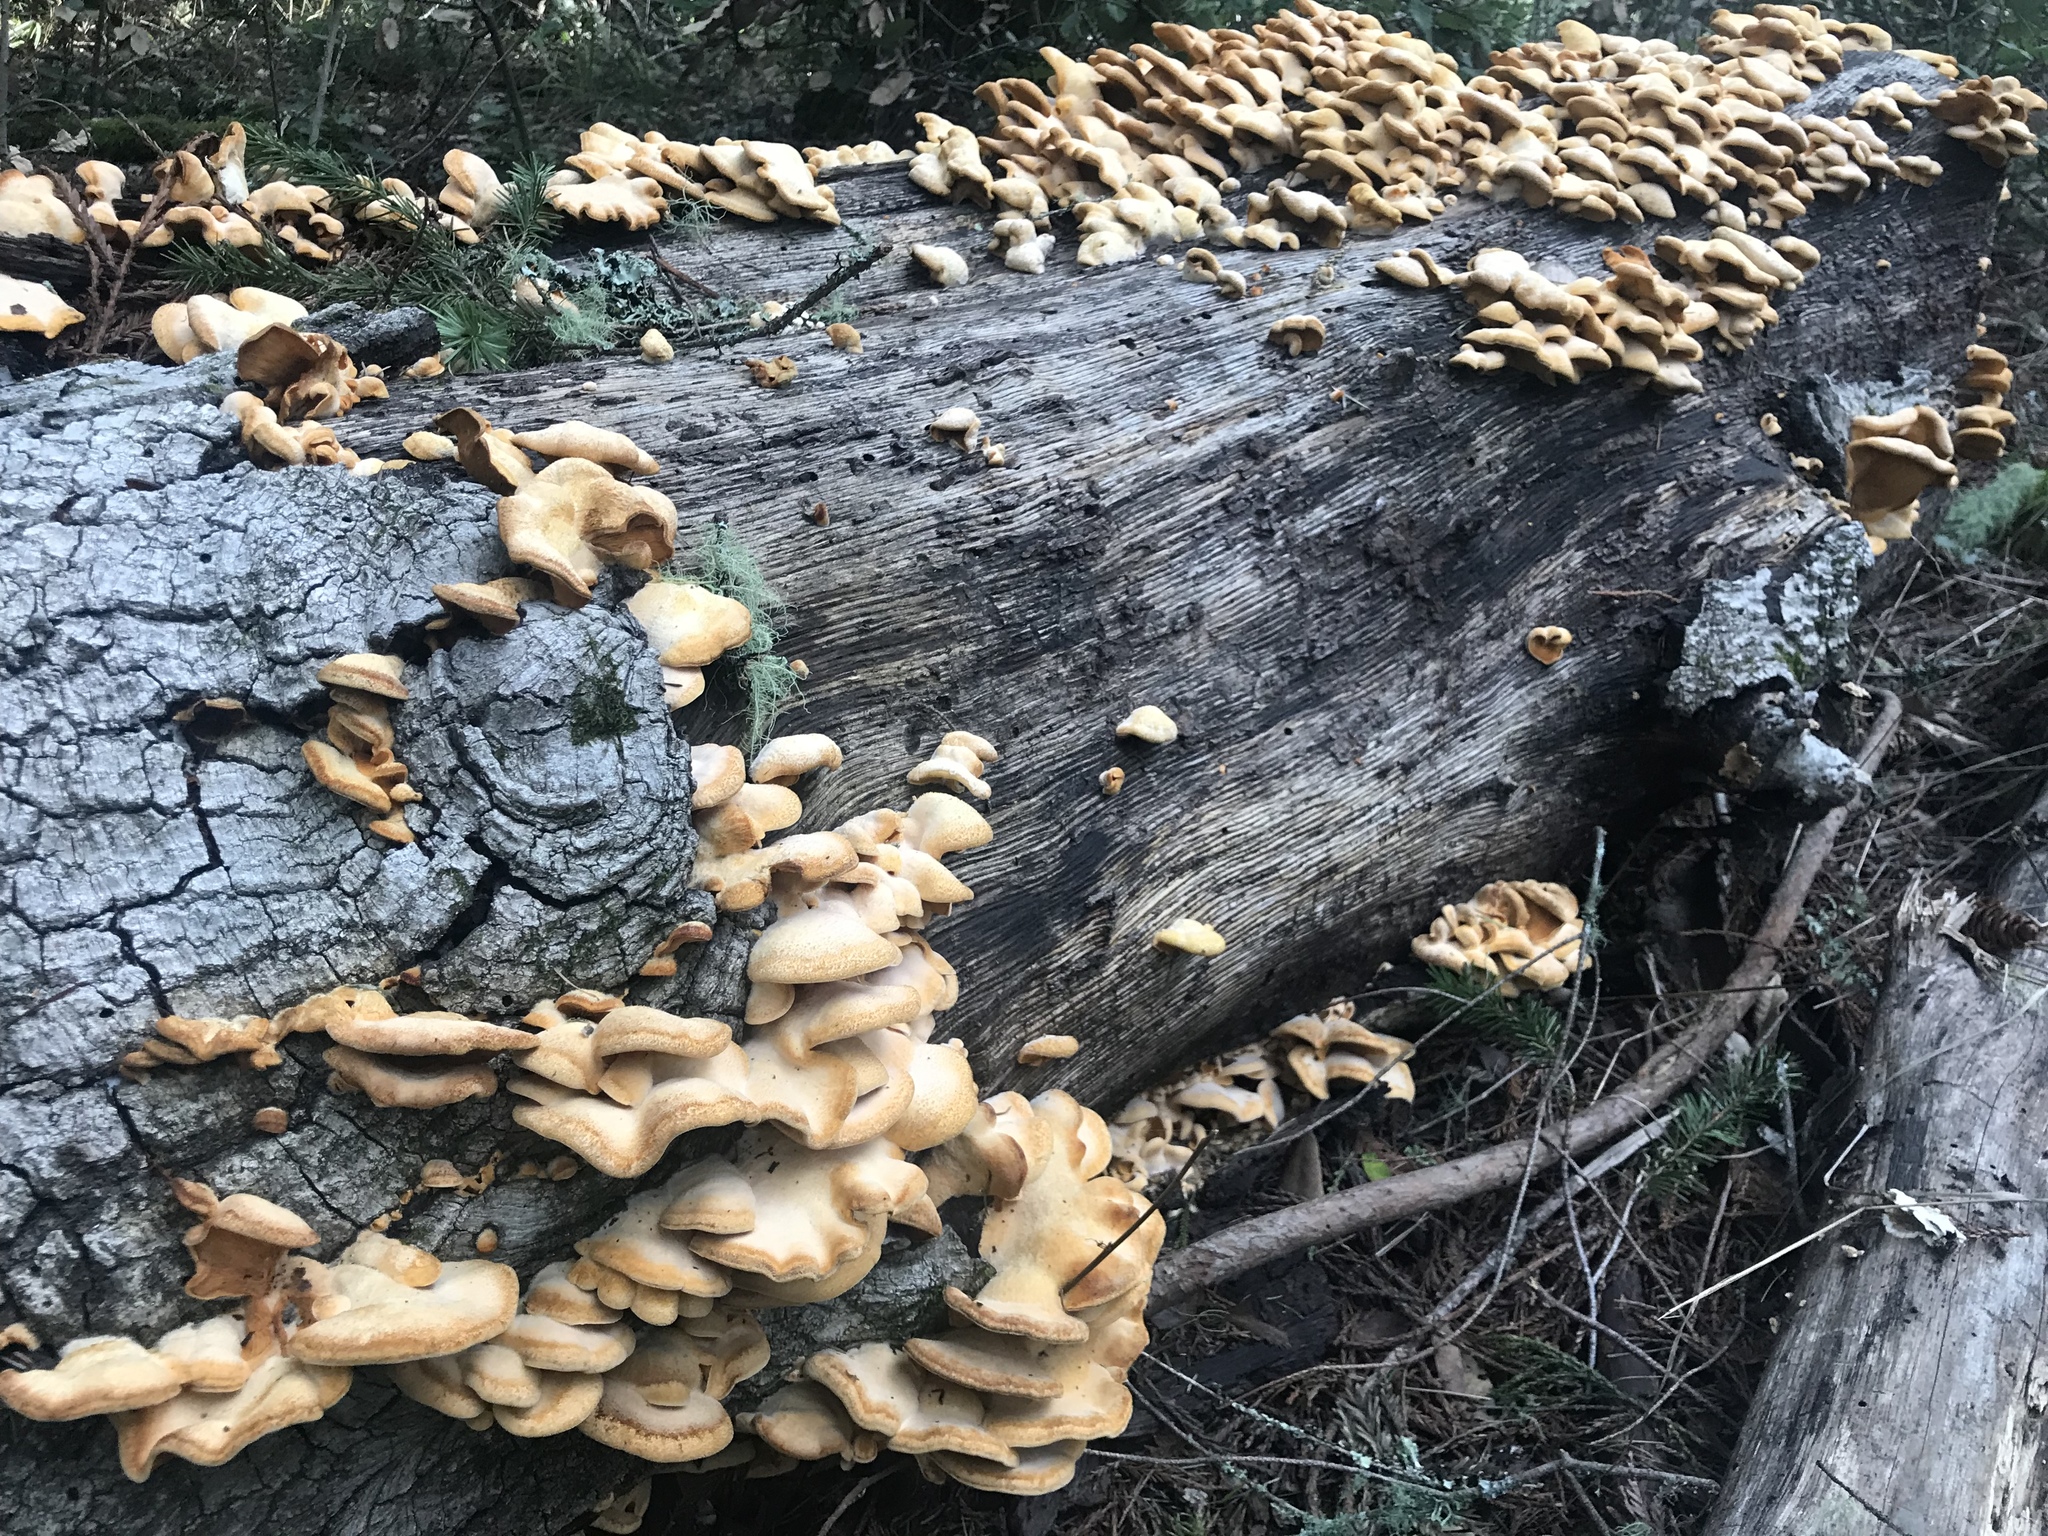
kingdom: Fungi
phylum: Basidiomycota
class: Agaricomycetes
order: Agaricales
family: Phyllotopsidaceae
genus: Phyllotopsis
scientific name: Phyllotopsis nidulans
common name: Orange mock oyster
